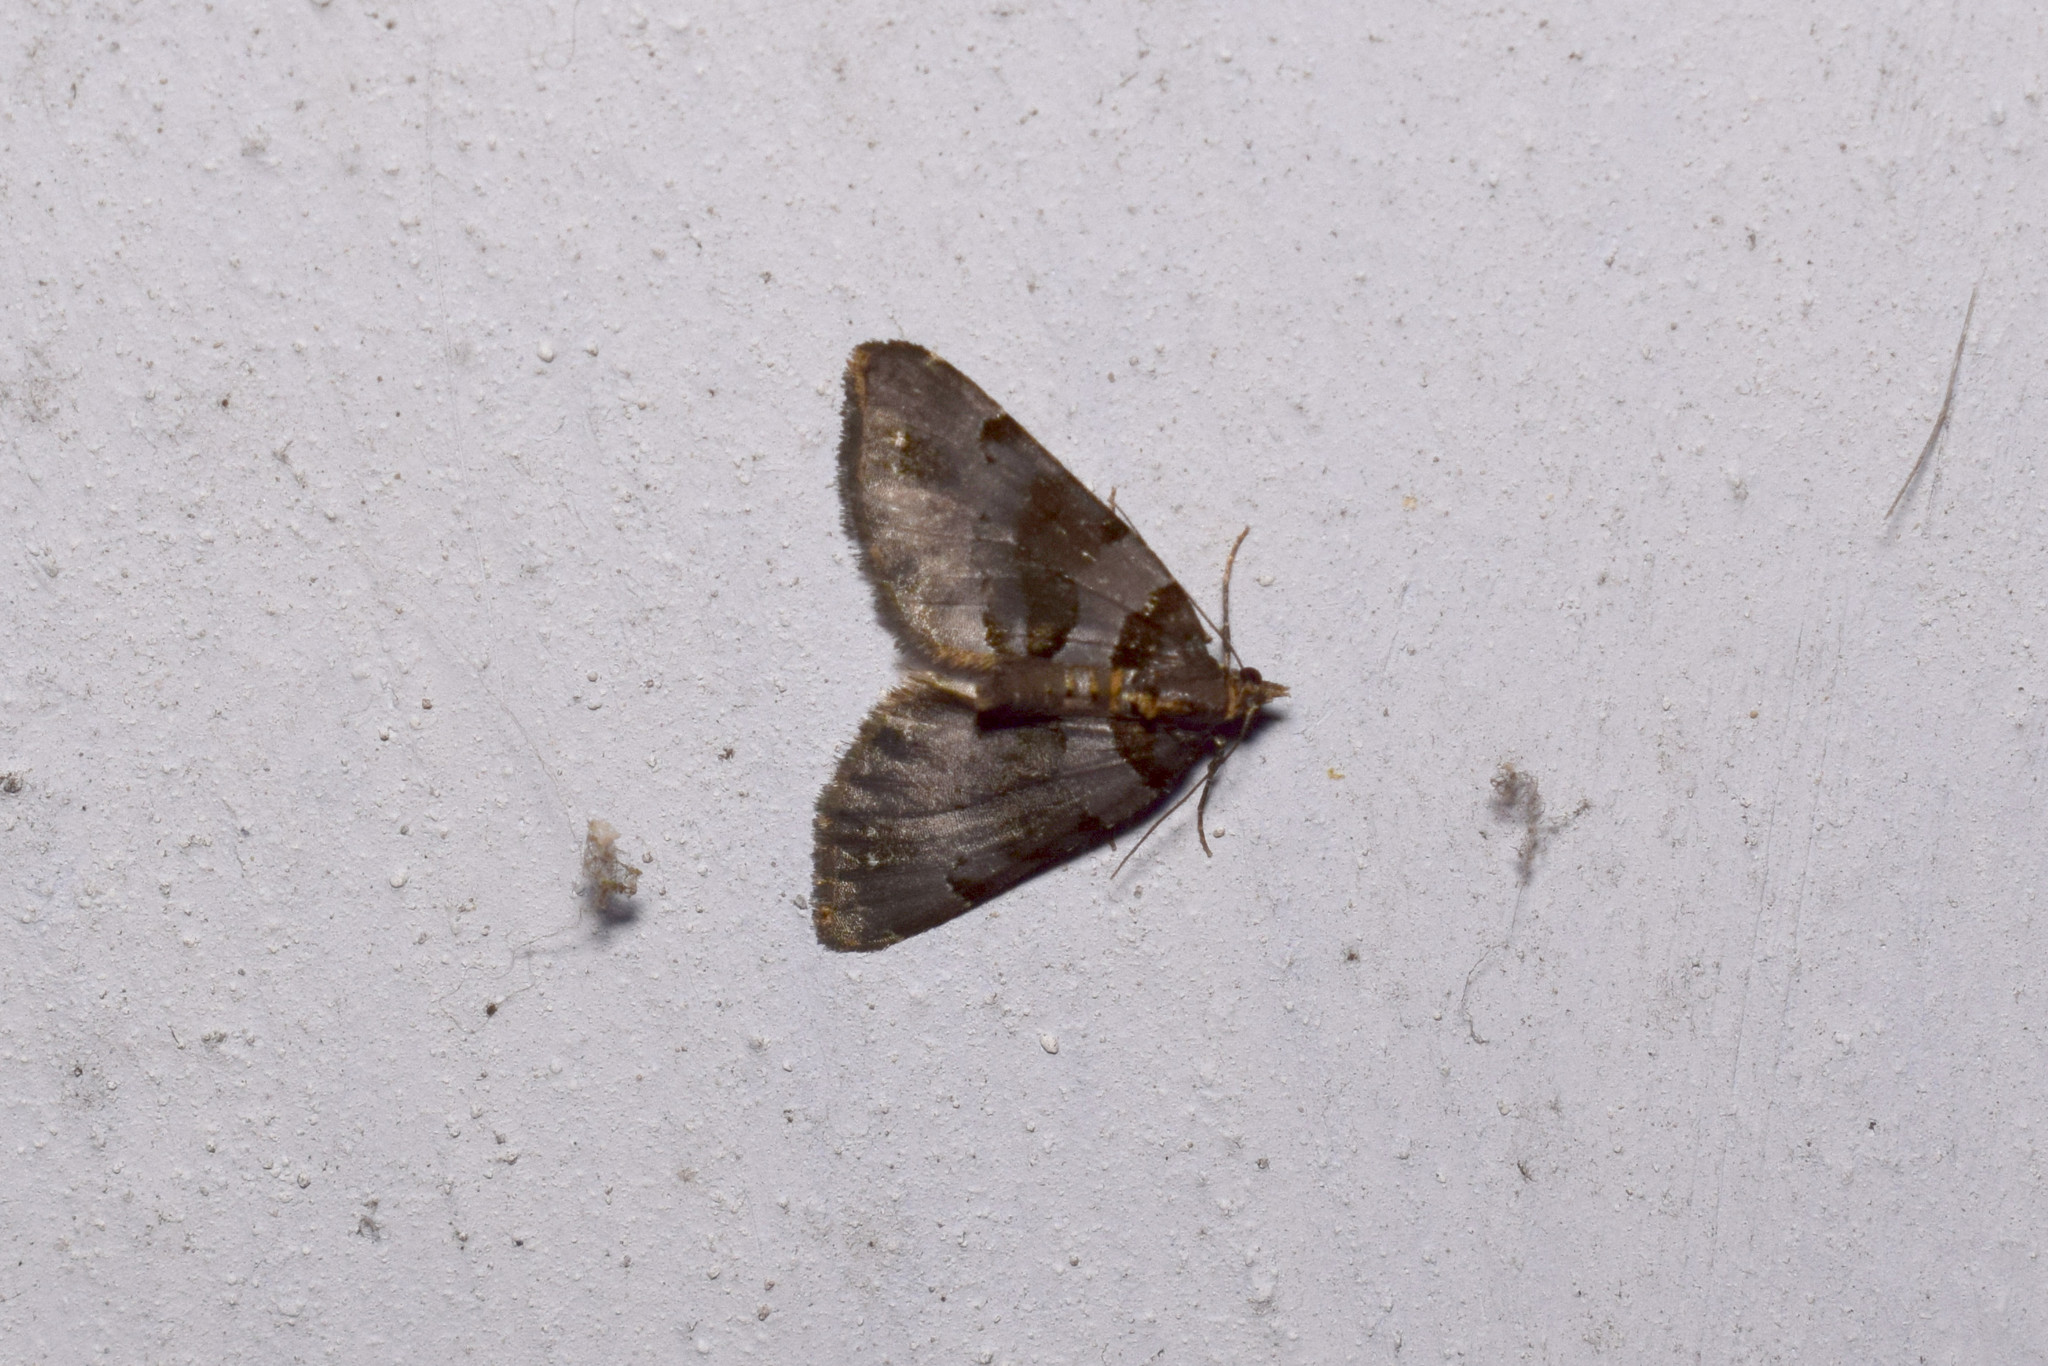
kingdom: Animalia
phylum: Arthropoda
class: Insecta
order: Lepidoptera
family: Geometridae
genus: Perizoma
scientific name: Perizoma
